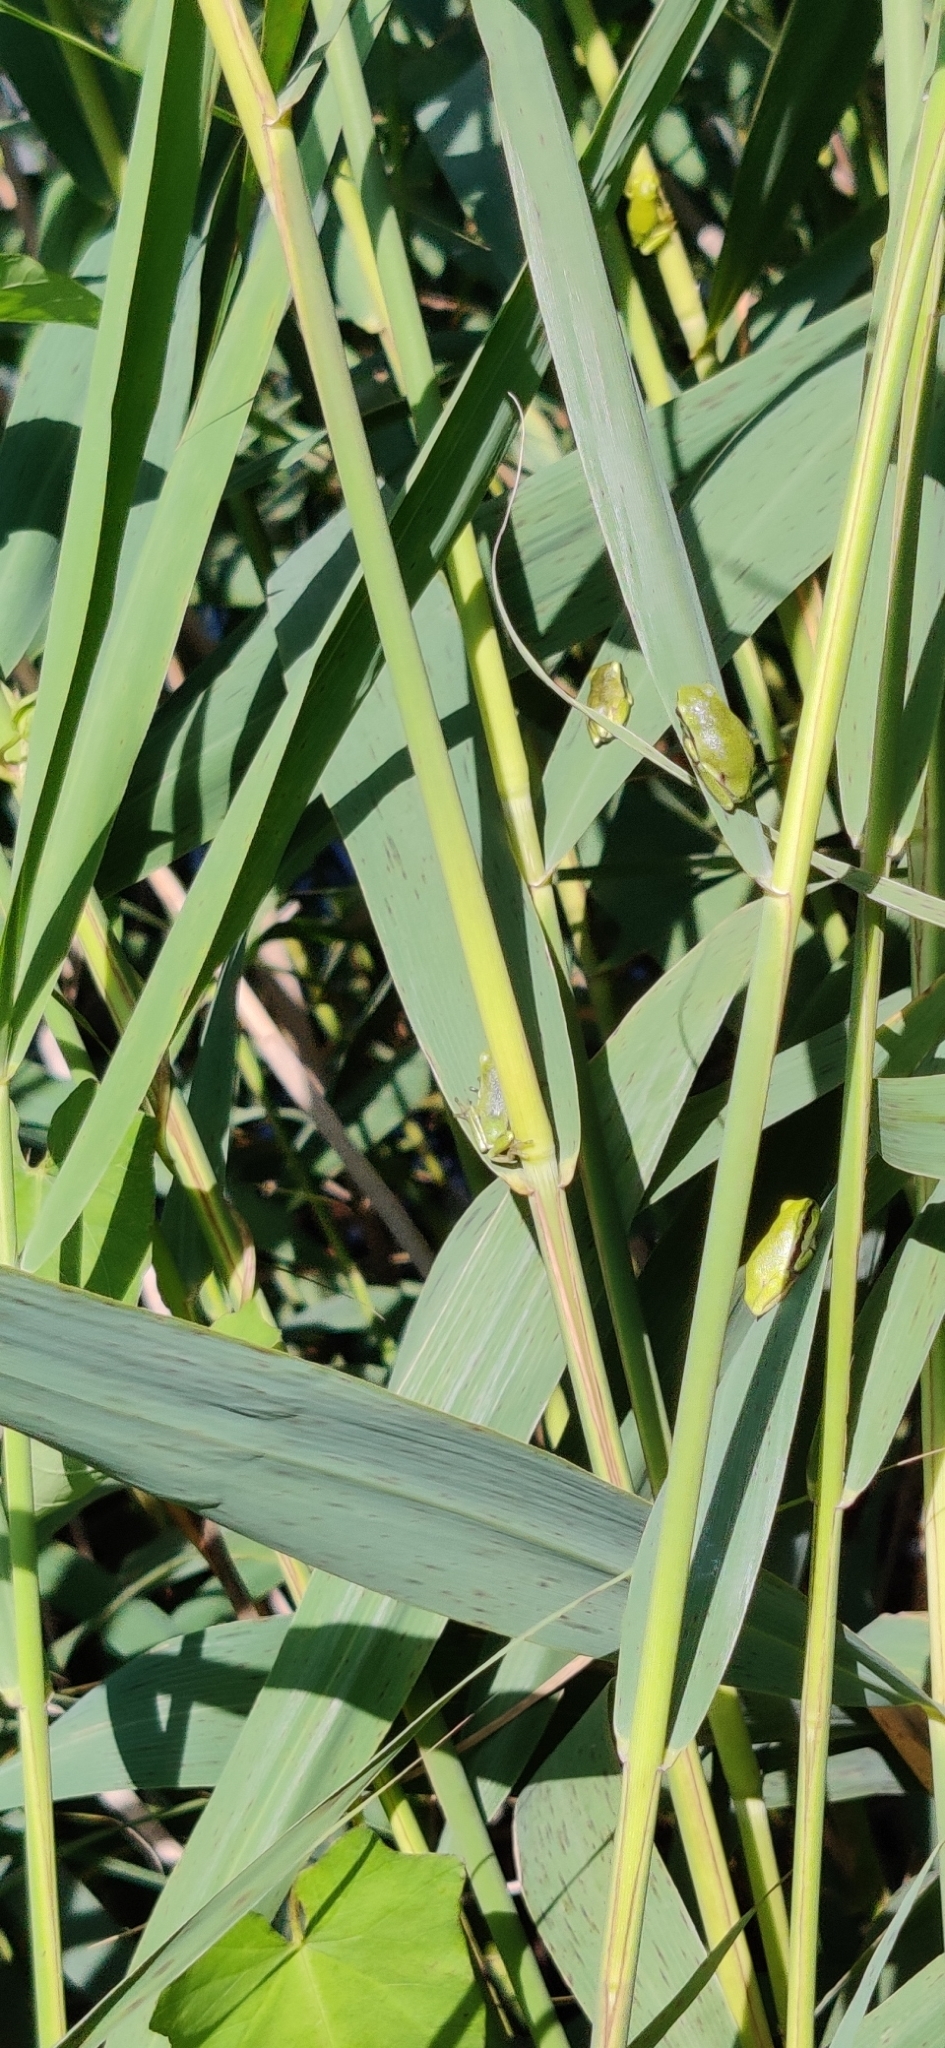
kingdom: Animalia
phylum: Chordata
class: Amphibia
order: Anura
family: Hylidae
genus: Hyla
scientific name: Hyla arborea
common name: Common tree frog
